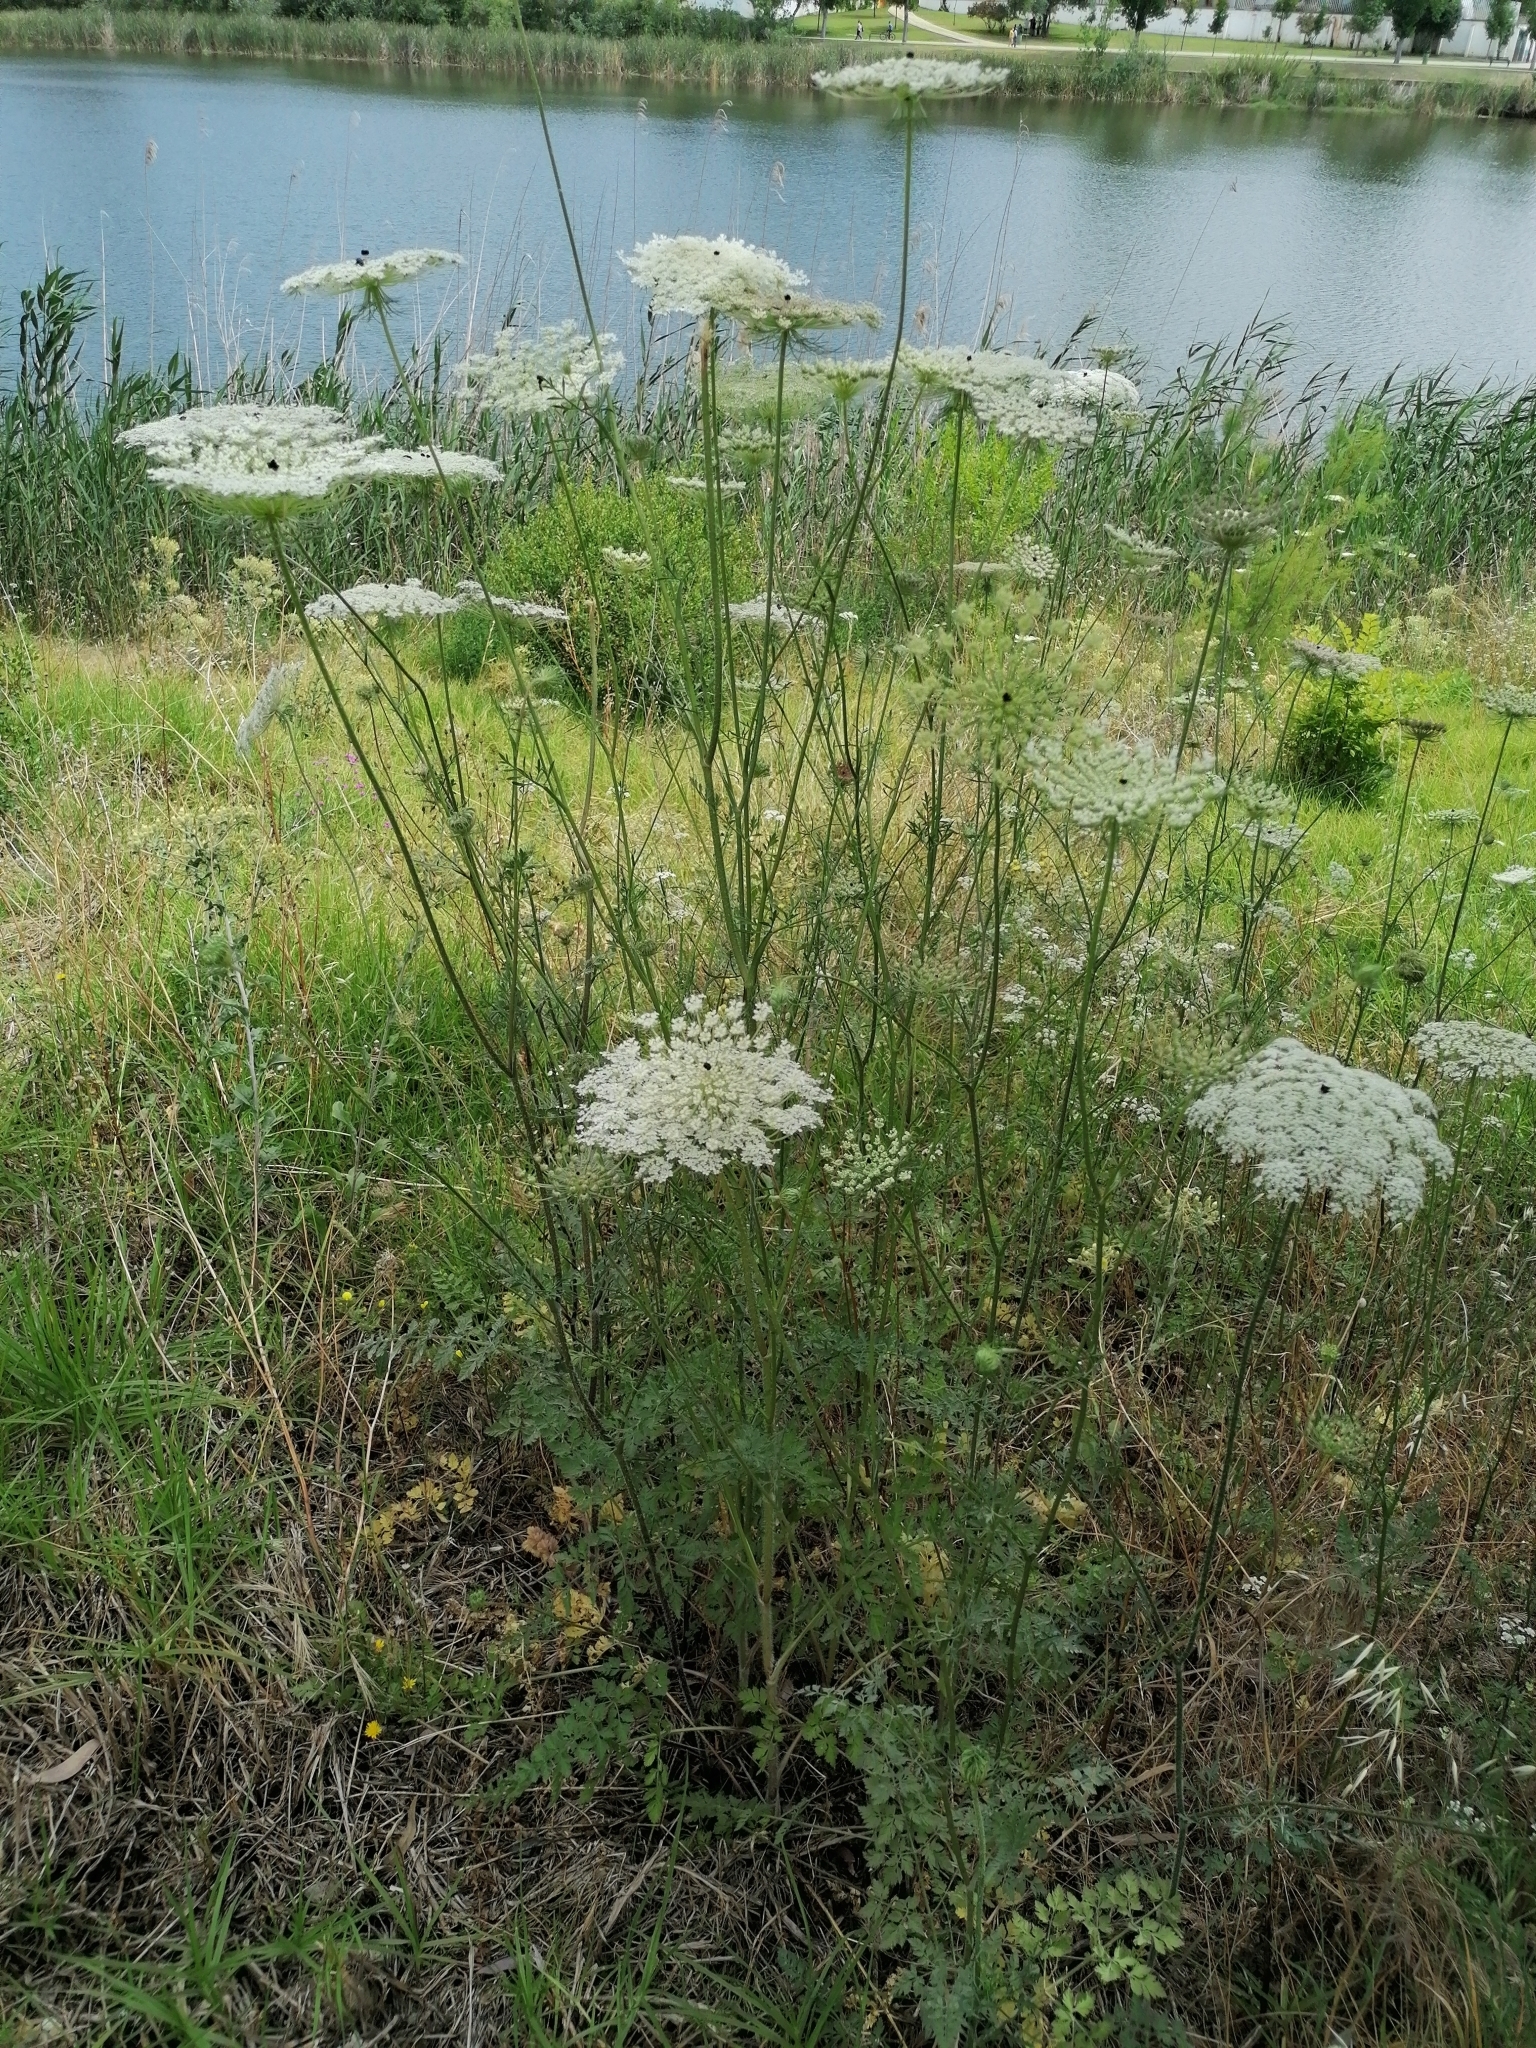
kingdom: Plantae
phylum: Tracheophyta
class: Magnoliopsida
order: Apiales
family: Apiaceae
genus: Daucus
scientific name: Daucus carota
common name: Wild carrot
